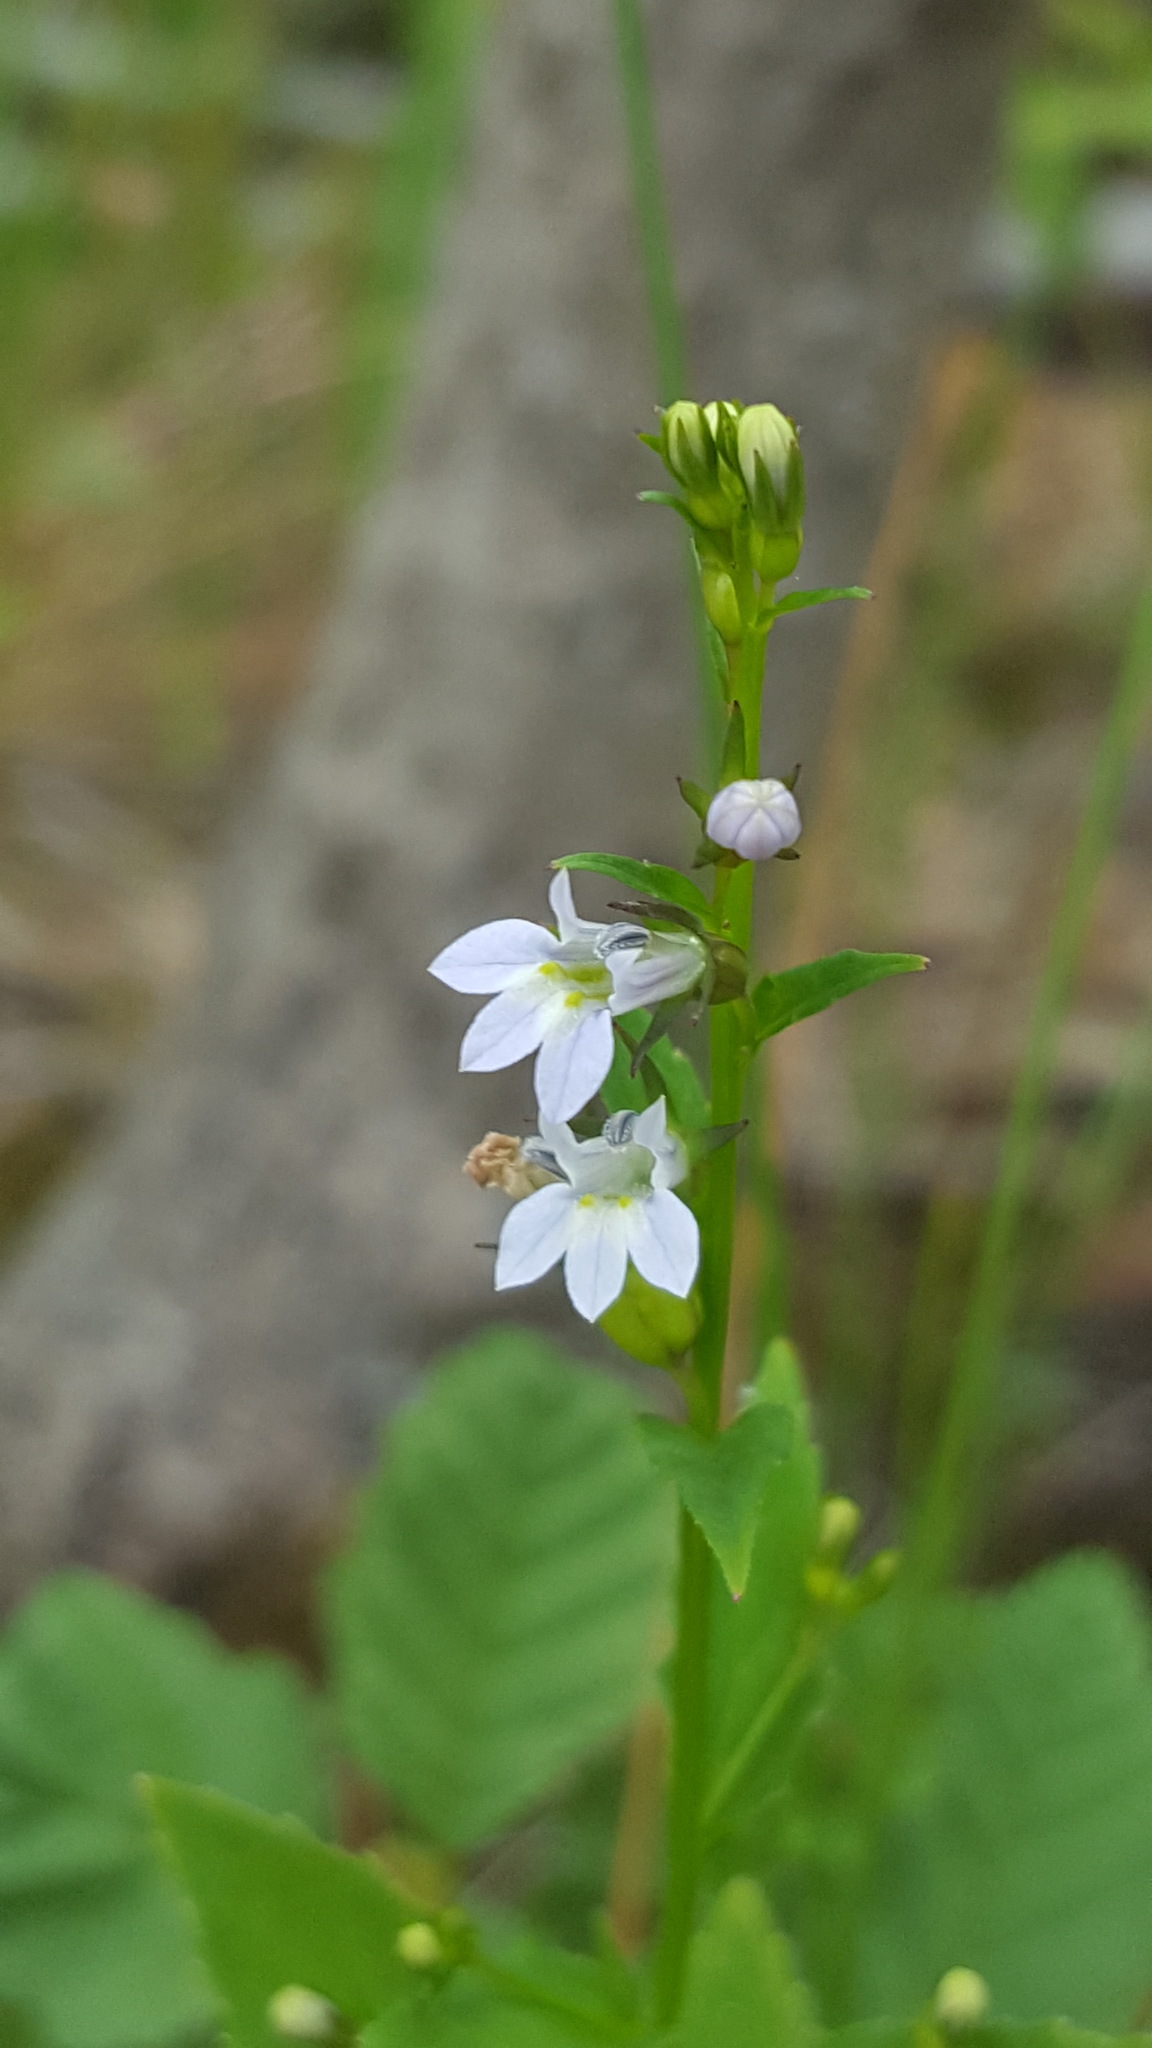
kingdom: Plantae
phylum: Tracheophyta
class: Magnoliopsida
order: Asterales
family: Campanulaceae
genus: Lobelia
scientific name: Lobelia inflata
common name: Indian tobacco
